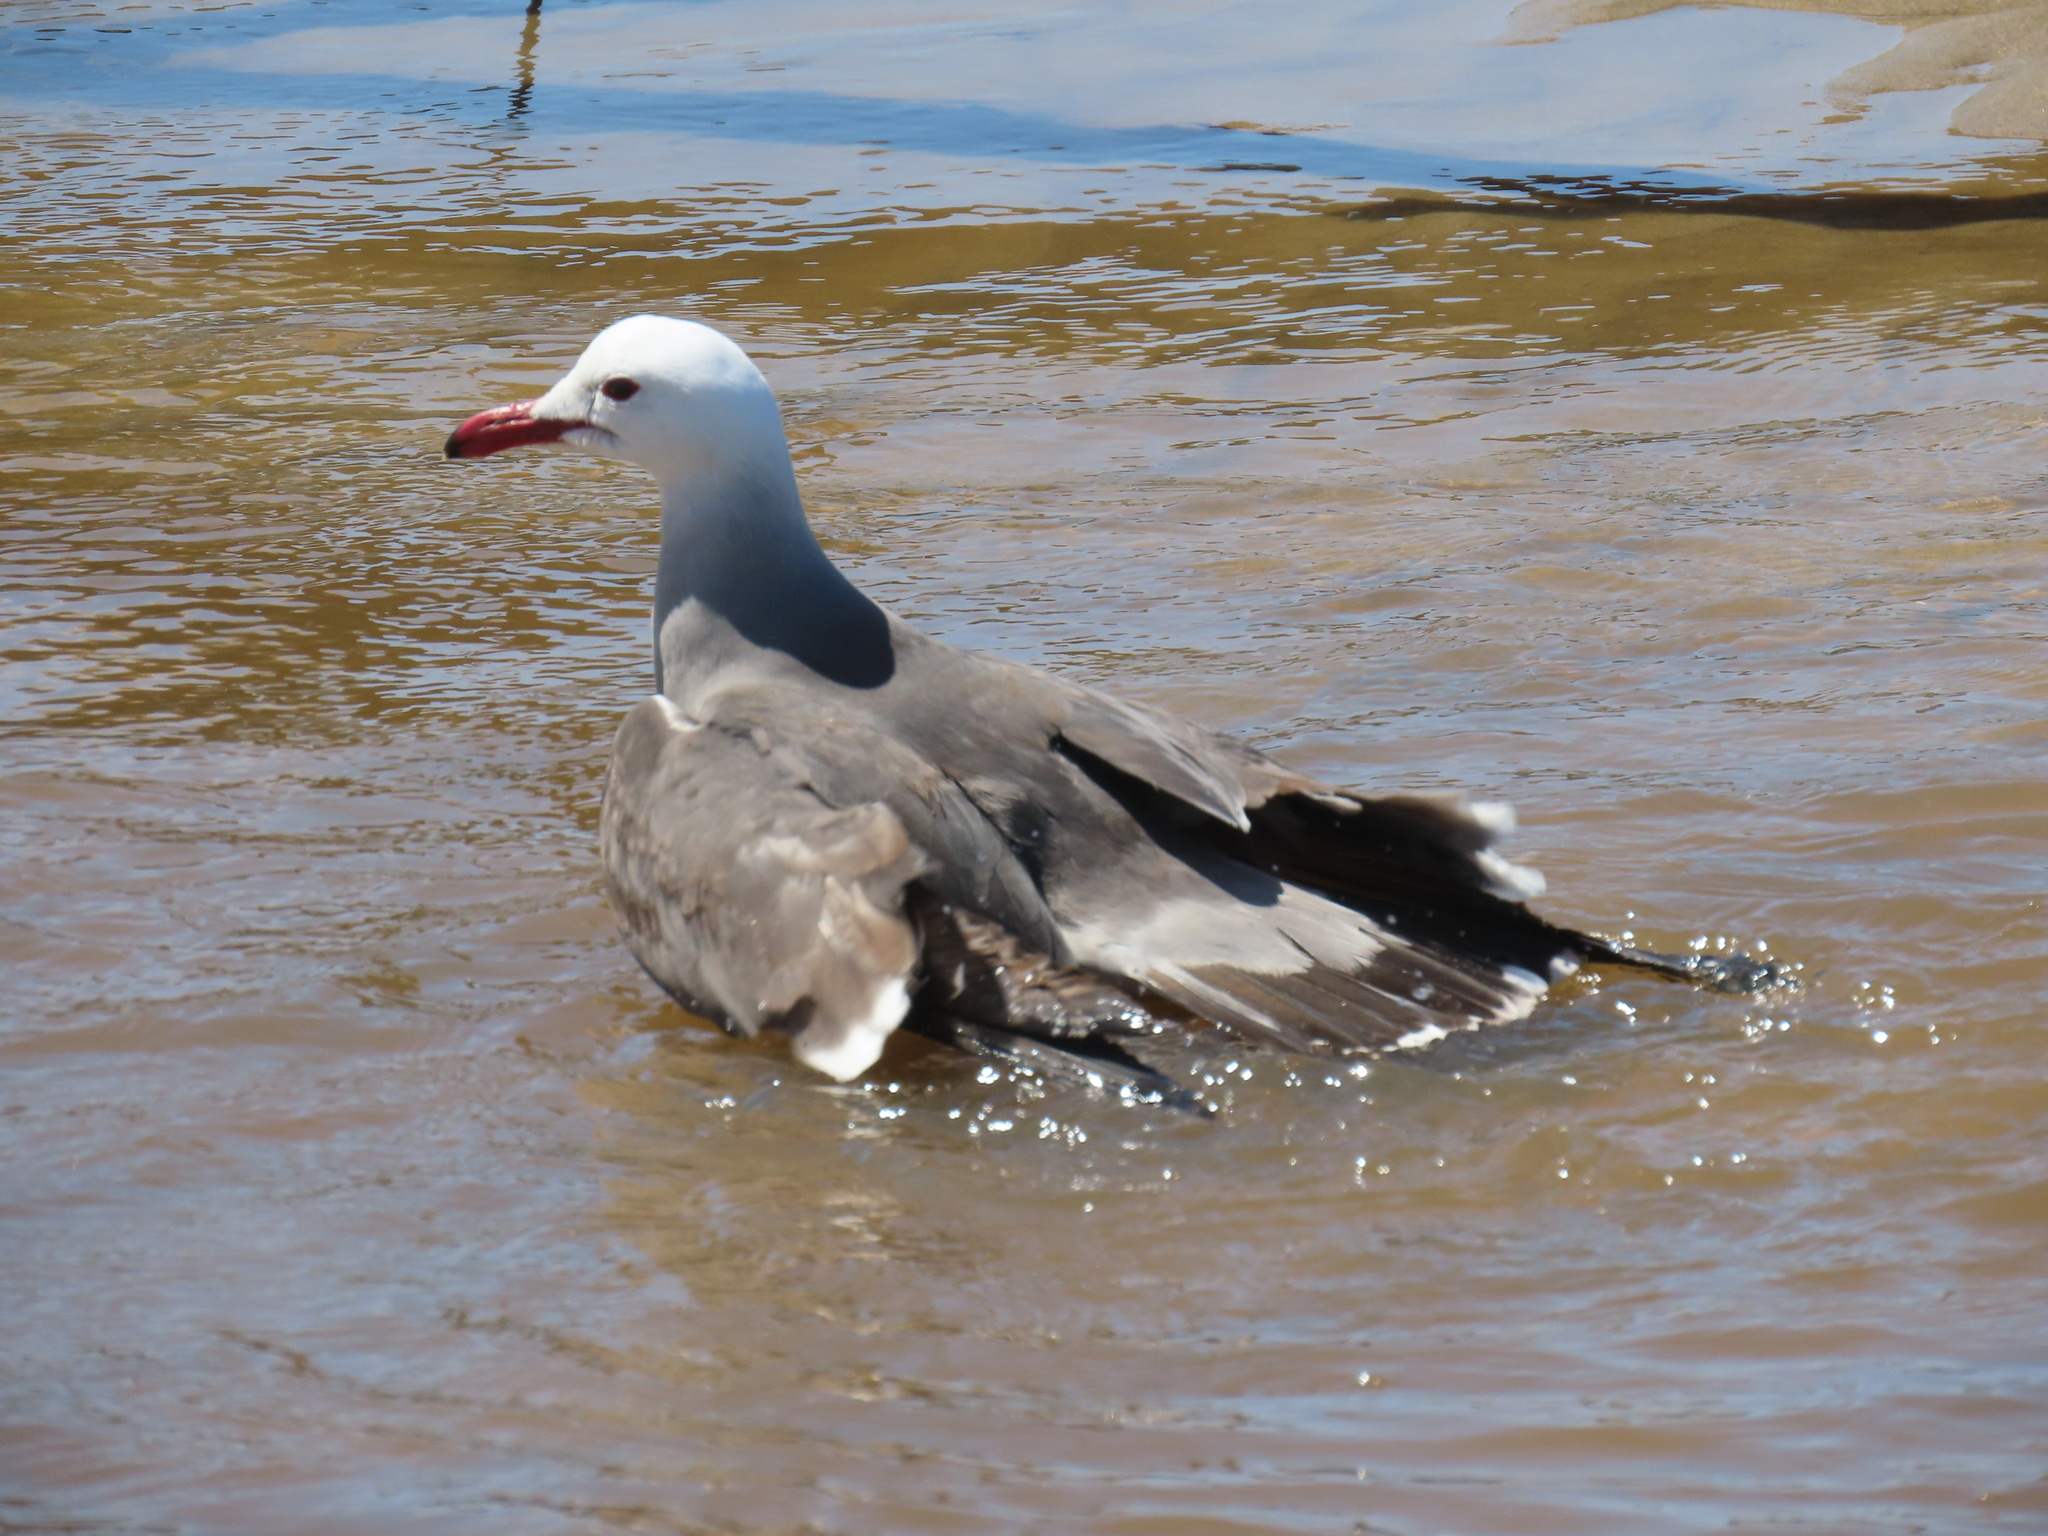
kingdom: Animalia
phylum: Chordata
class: Aves
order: Charadriiformes
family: Laridae
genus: Larus
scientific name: Larus heermanni
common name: Heermann's gull
